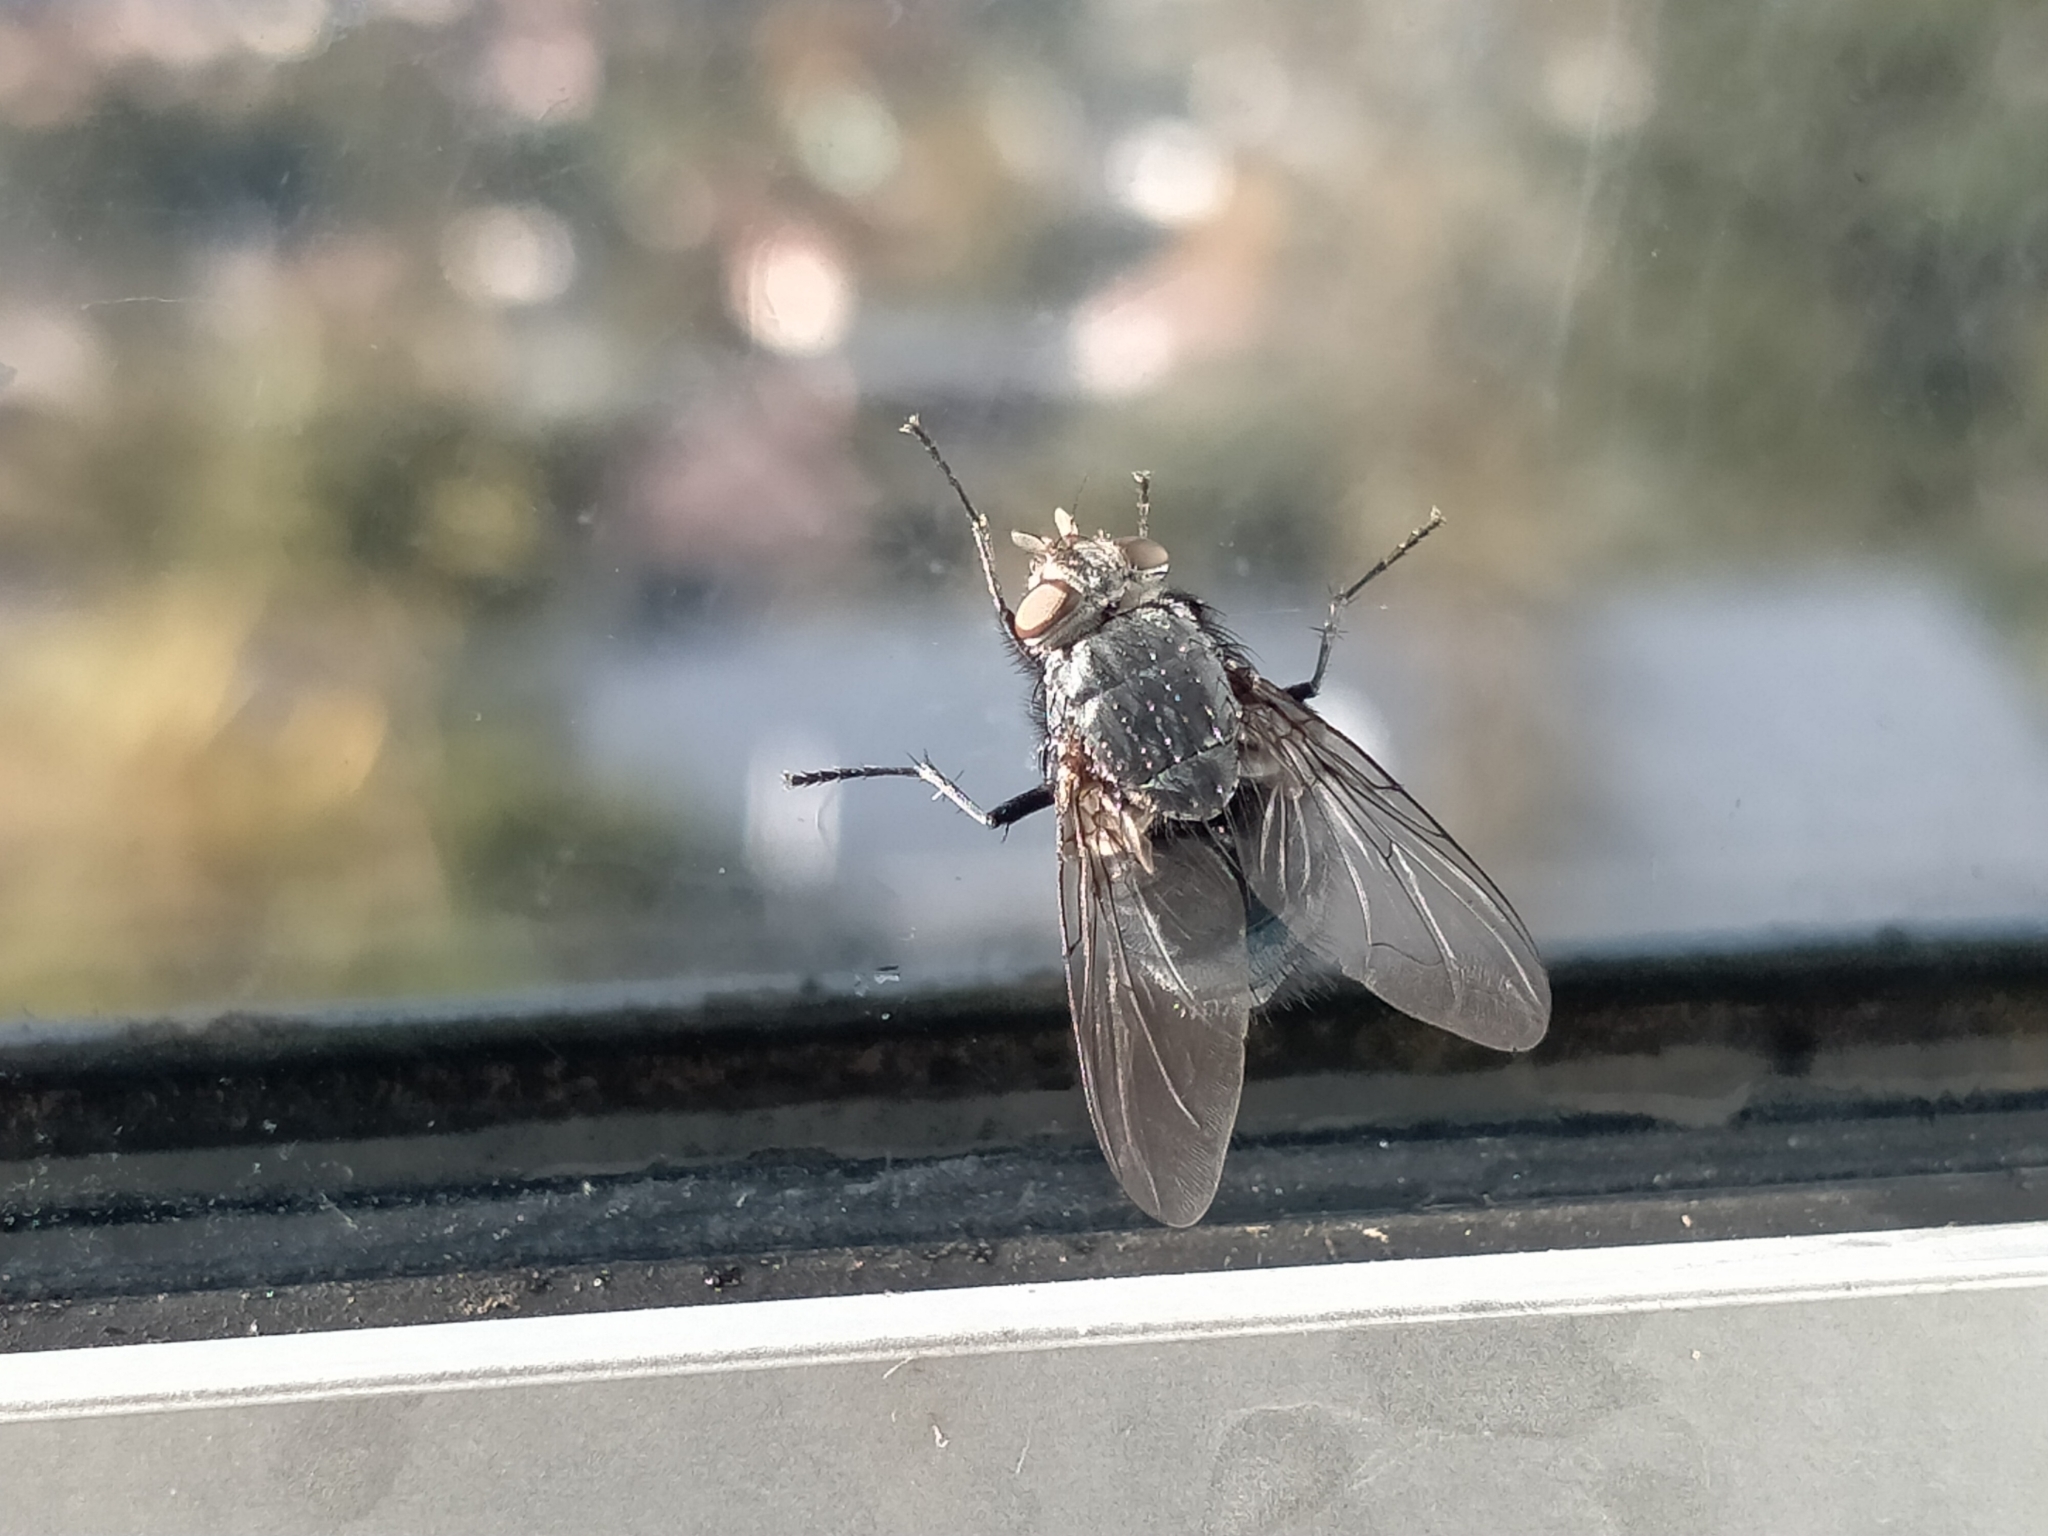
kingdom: Animalia
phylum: Arthropoda
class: Insecta
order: Diptera
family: Calliphoridae
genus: Calliphora
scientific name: Calliphora vicina
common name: Common blow flie
